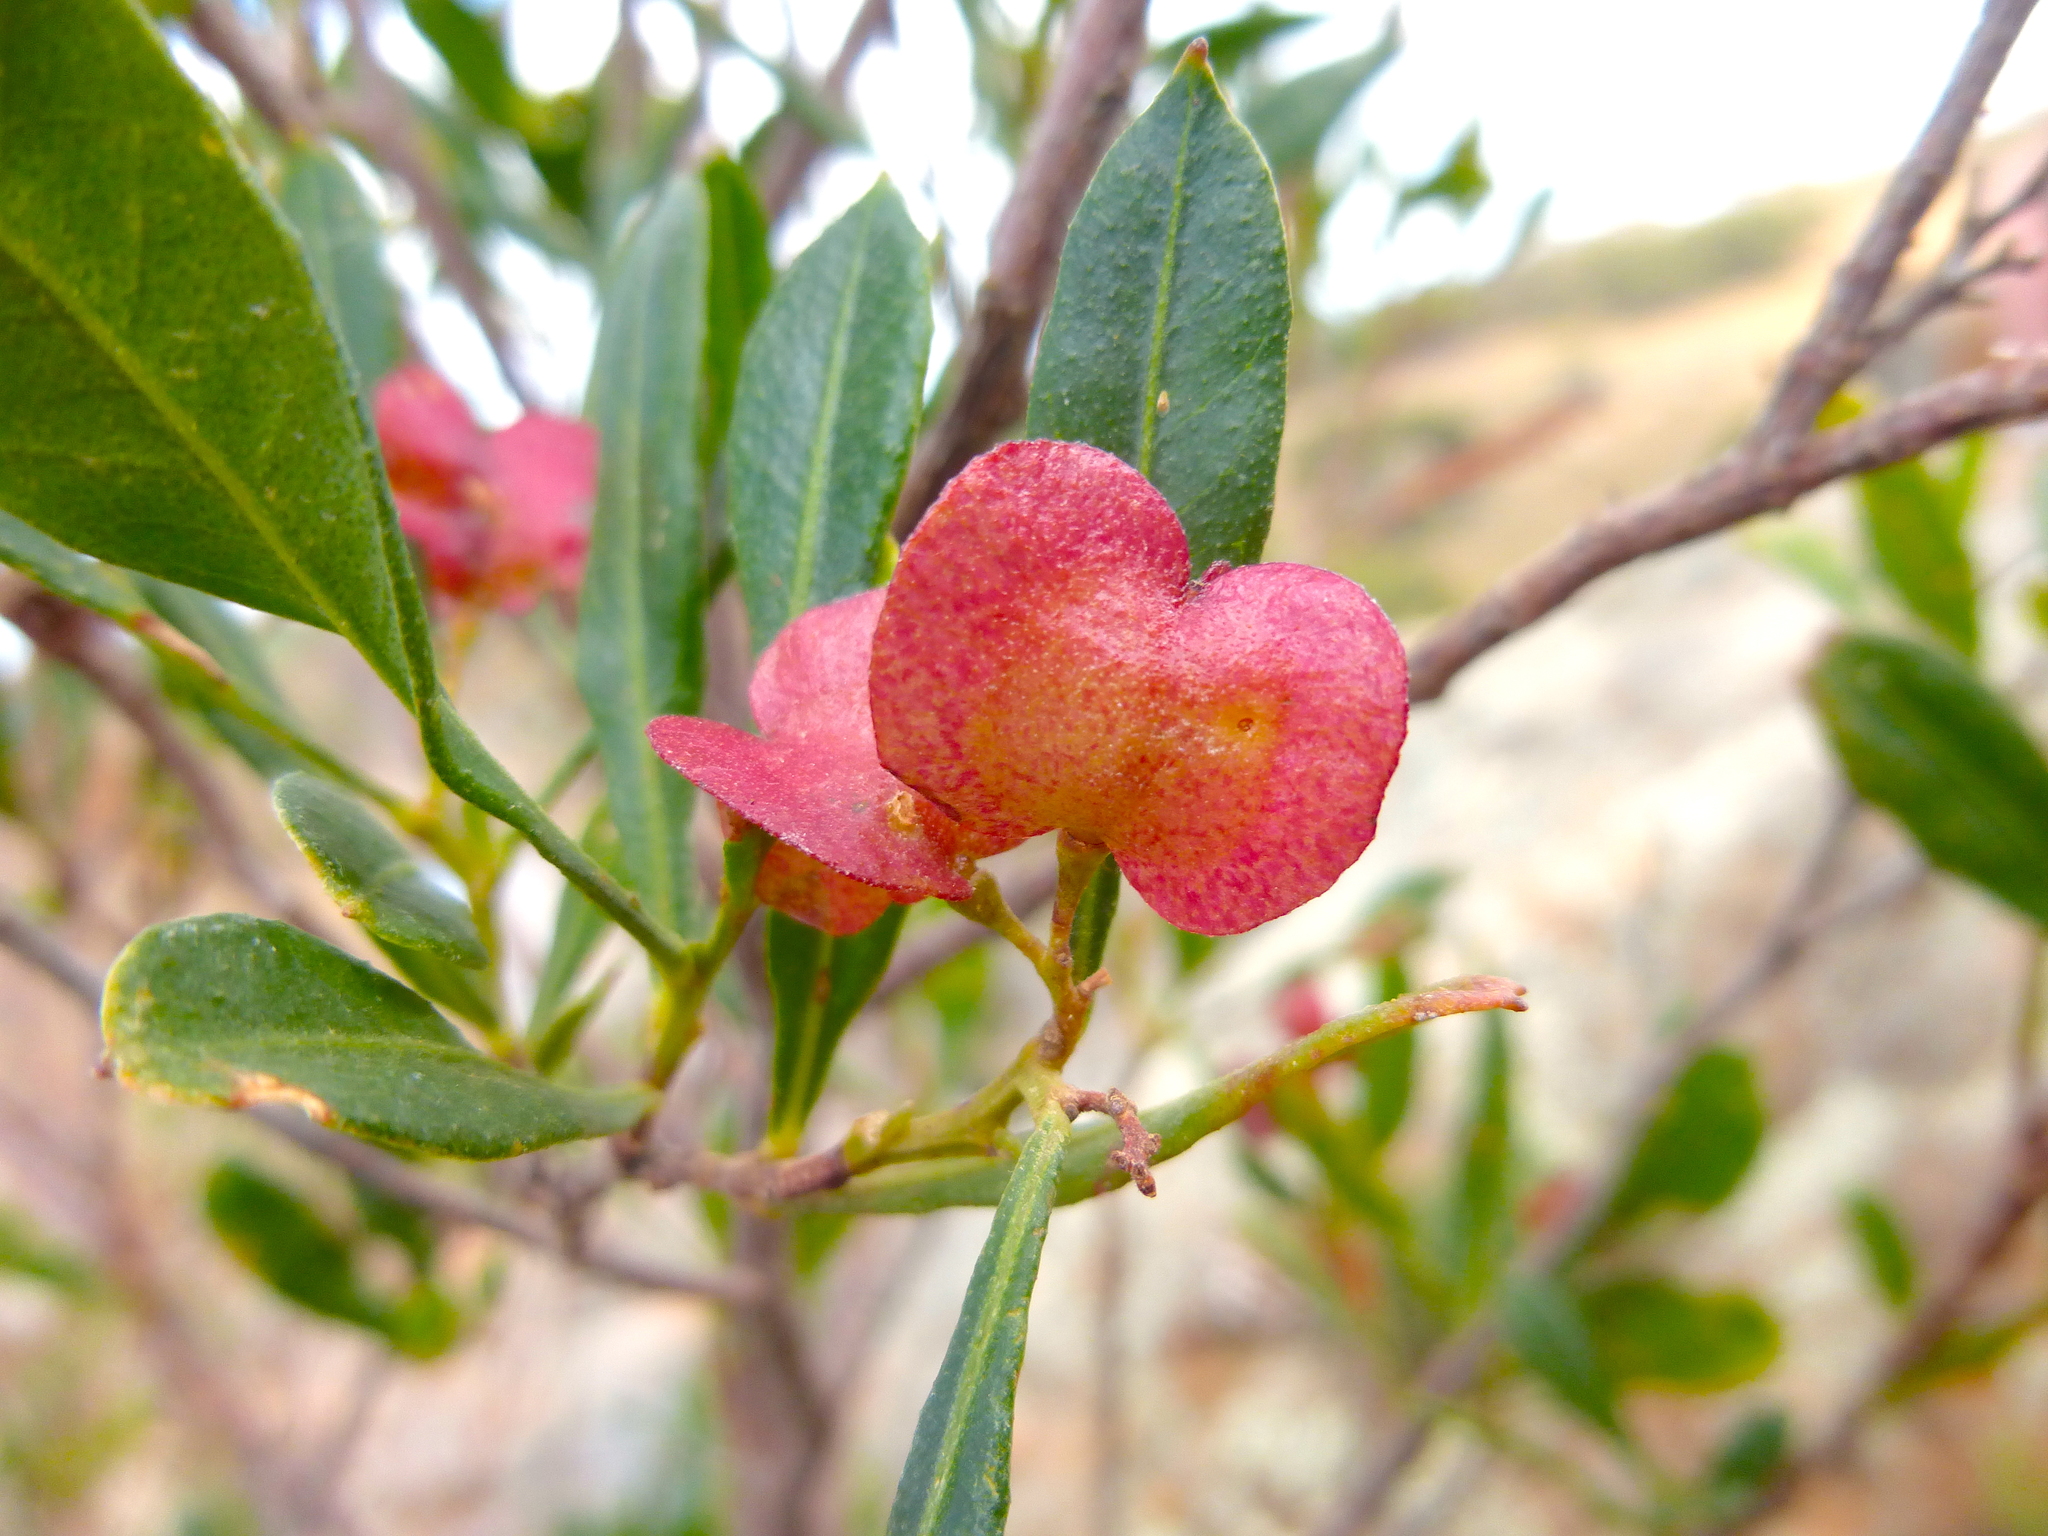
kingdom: Plantae
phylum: Tracheophyta
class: Magnoliopsida
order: Sapindales
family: Sapindaceae
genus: Dodonaea
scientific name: Dodonaea viscosa
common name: Hopbush
